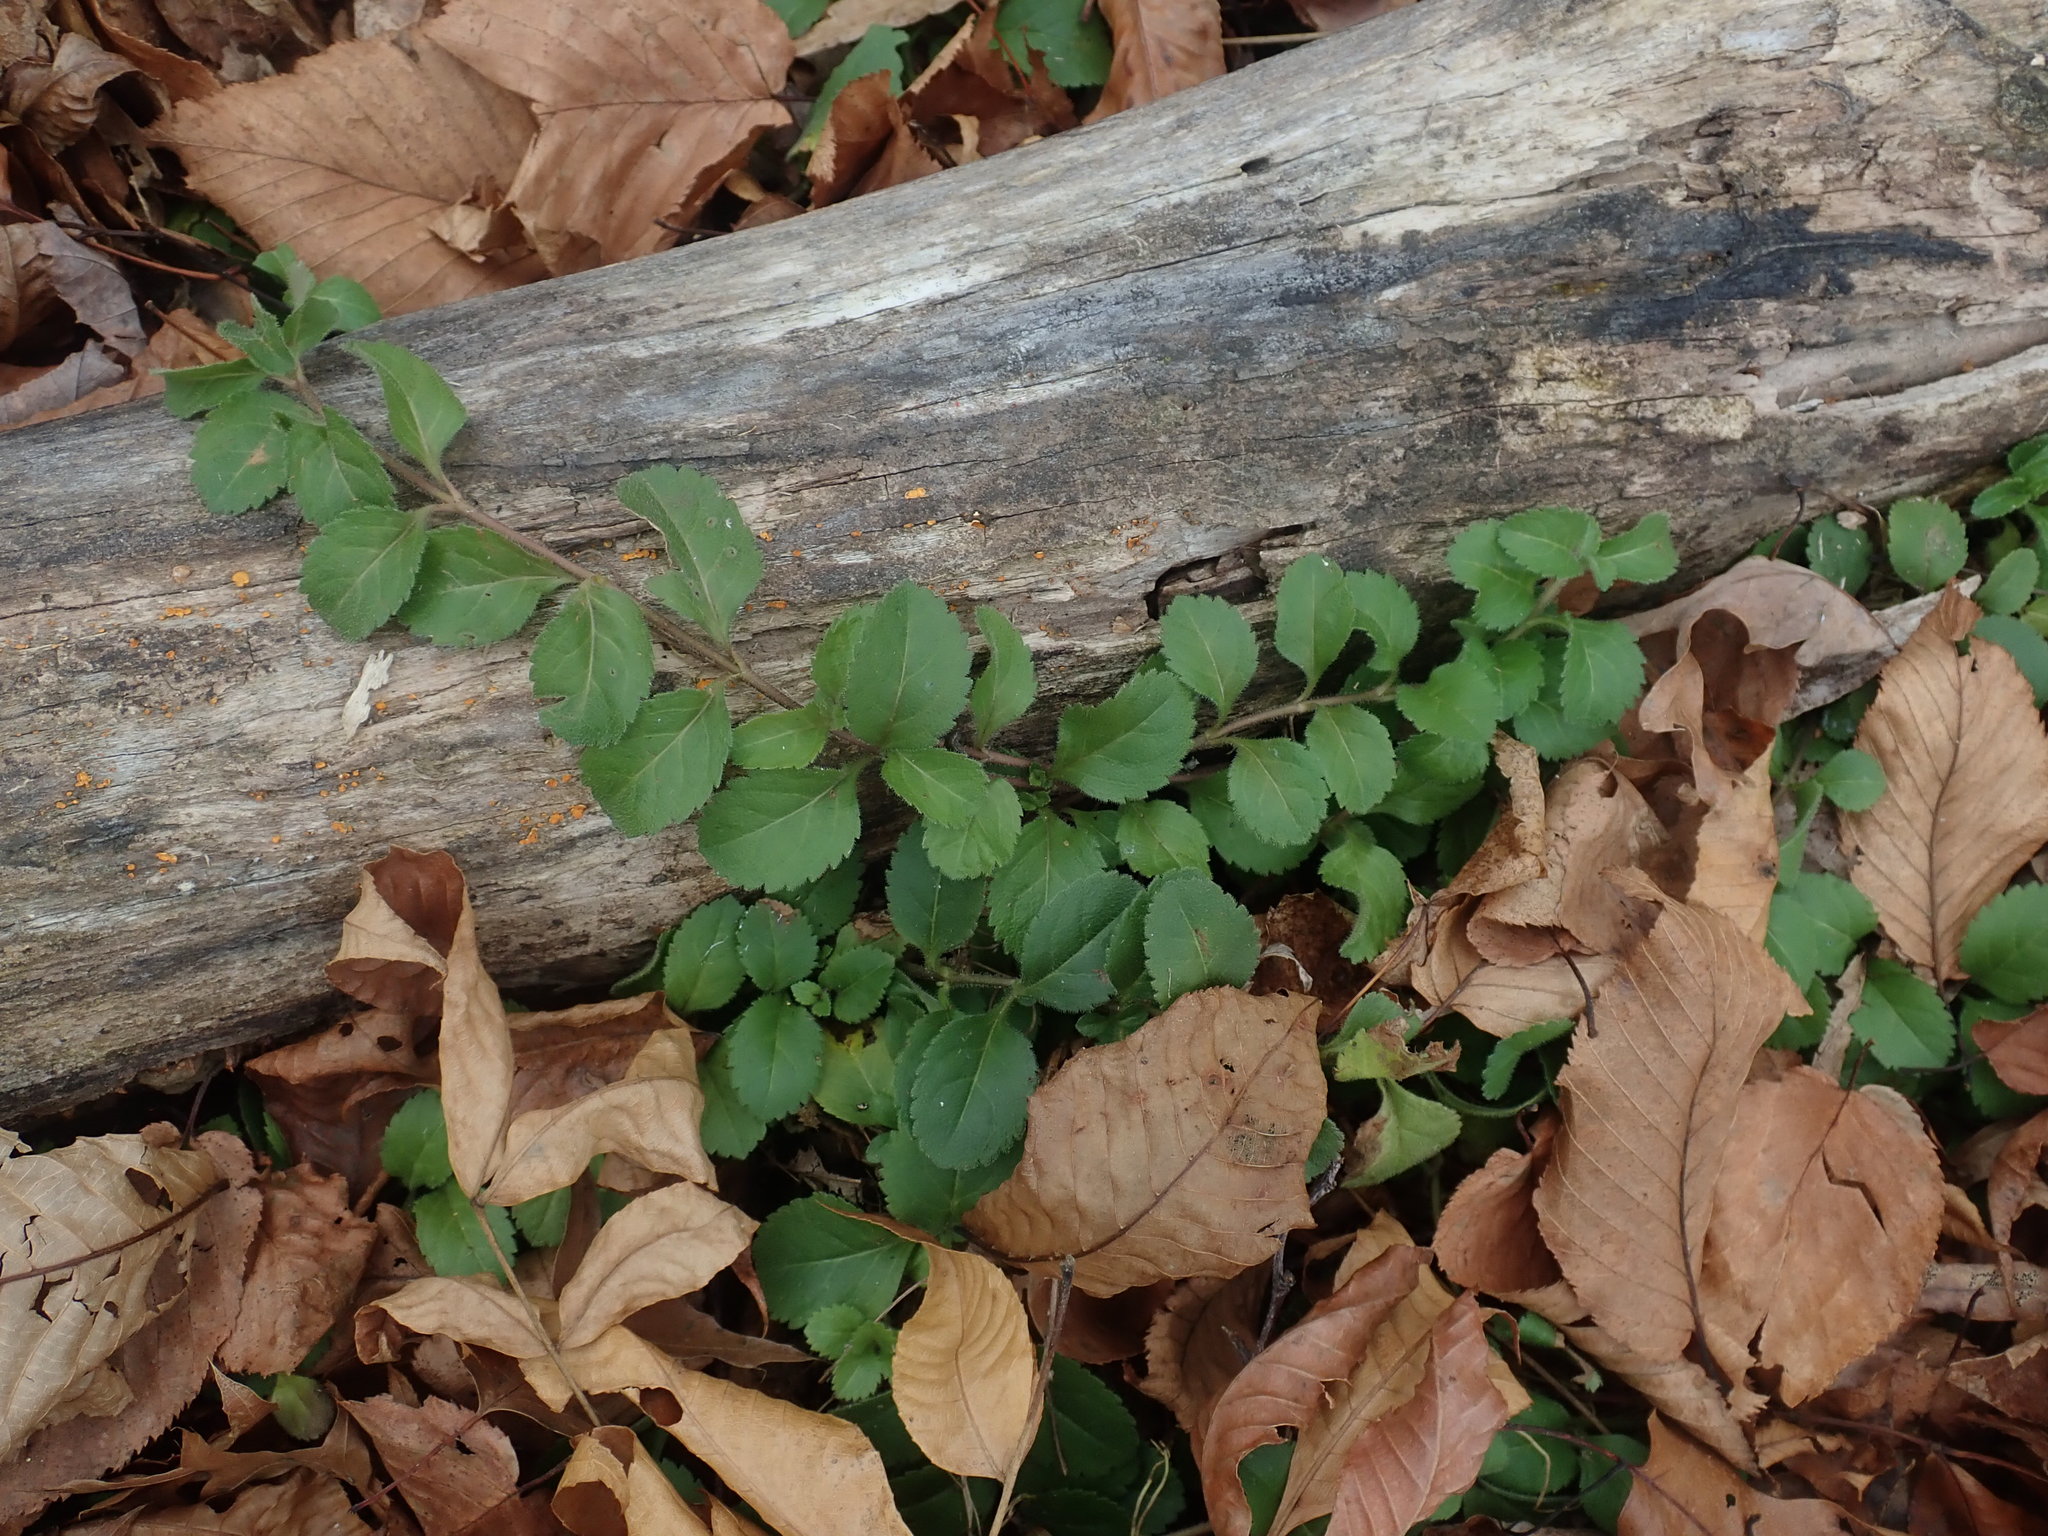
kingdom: Plantae
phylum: Tracheophyta
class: Magnoliopsida
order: Lamiales
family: Plantaginaceae
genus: Veronica
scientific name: Veronica officinalis
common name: Common speedwell
